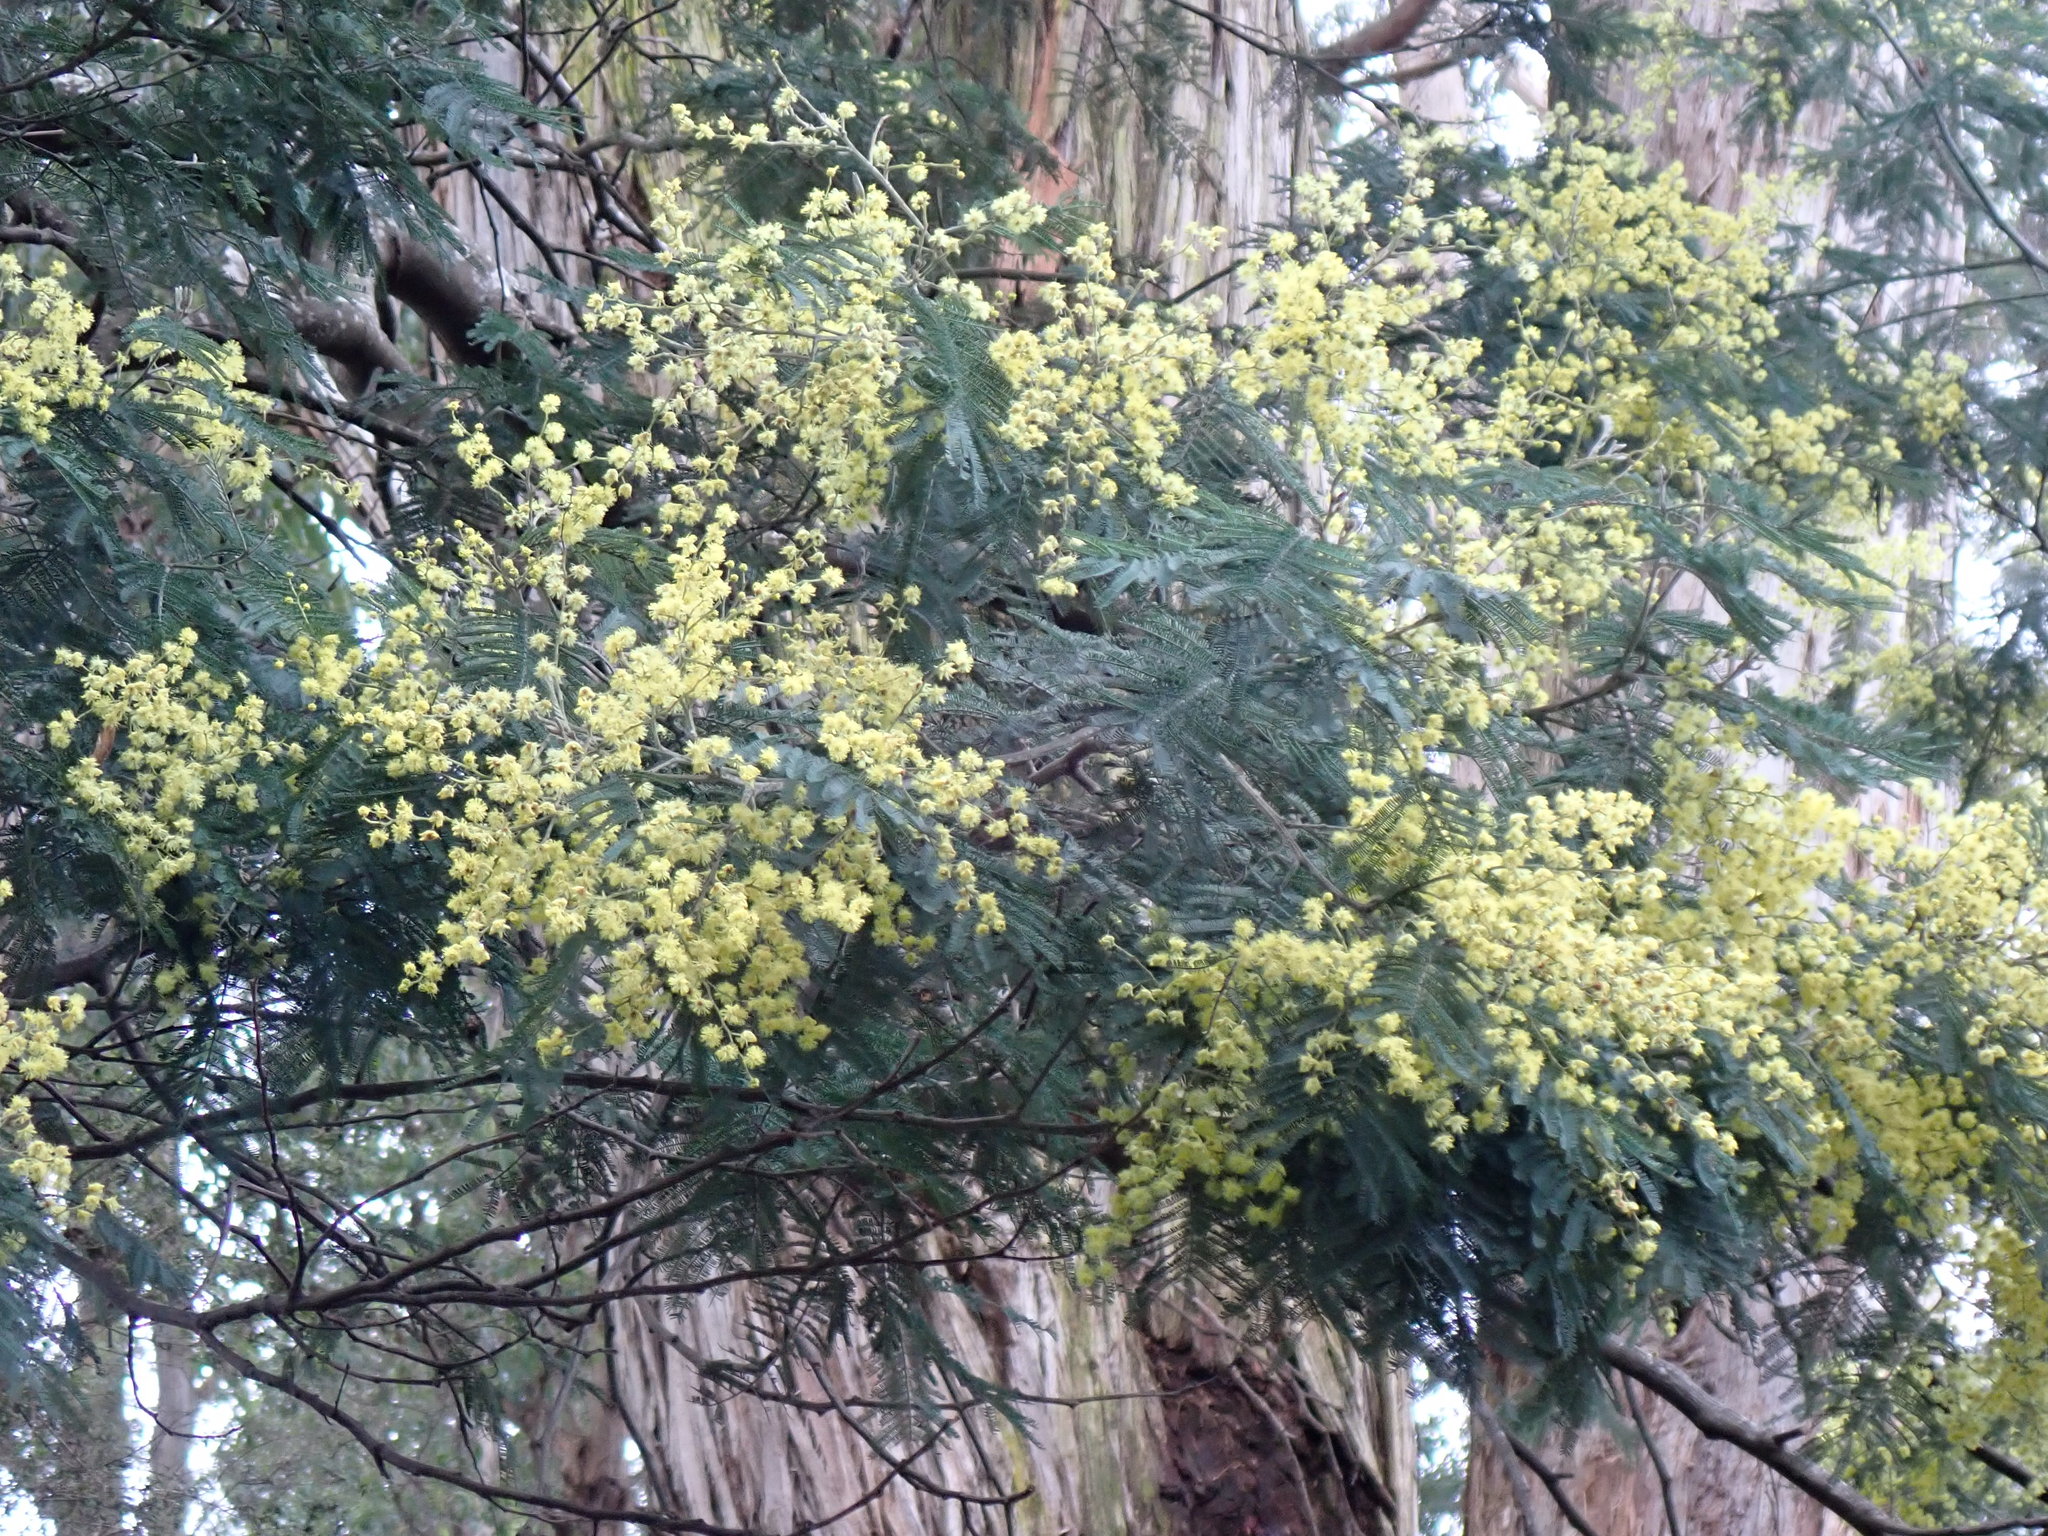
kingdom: Plantae
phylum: Tracheophyta
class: Magnoliopsida
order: Fabales
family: Fabaceae
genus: Acacia
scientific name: Acacia dealbata
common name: Silver wattle
